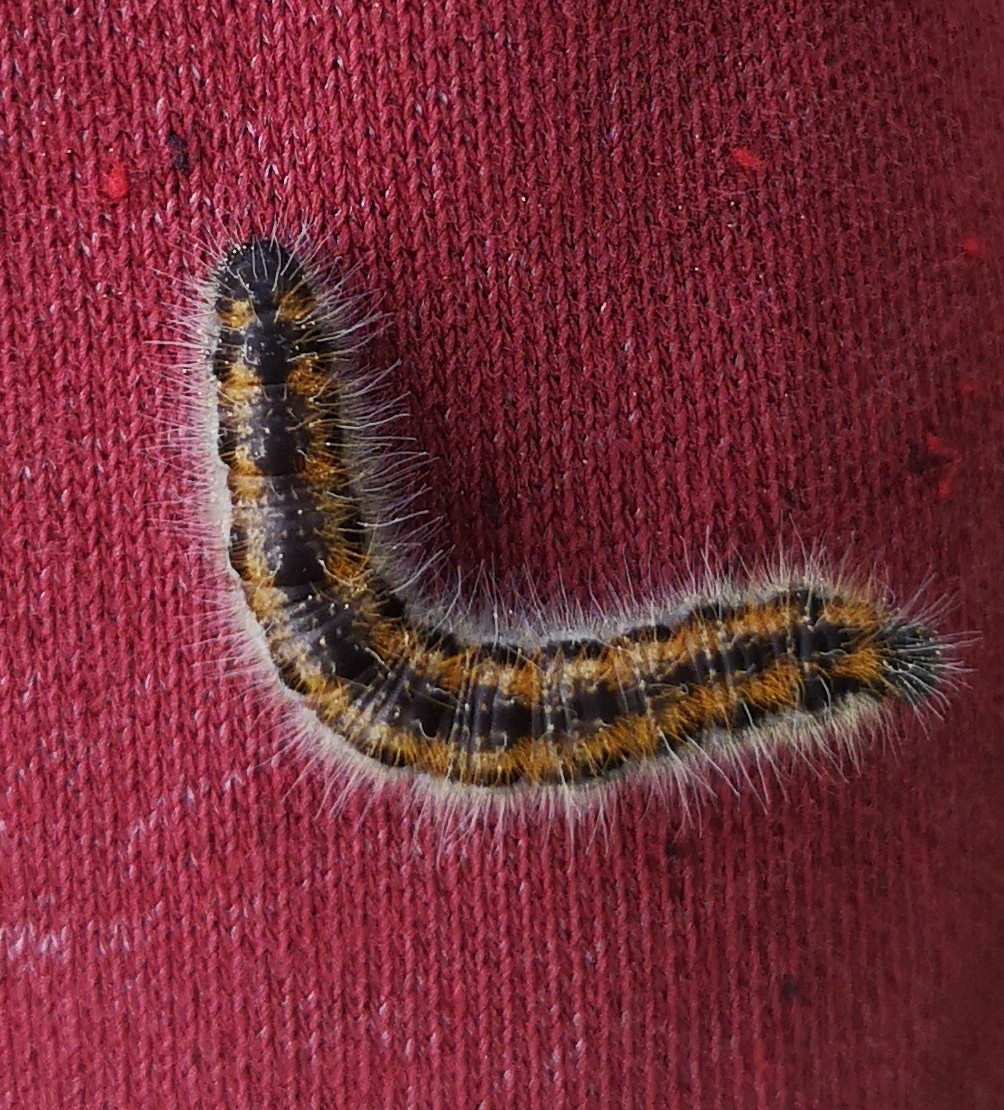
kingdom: Animalia
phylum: Arthropoda
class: Insecta
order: Lepidoptera
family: Pieridae
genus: Aporia
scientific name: Aporia crataegi
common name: Black-veined white
